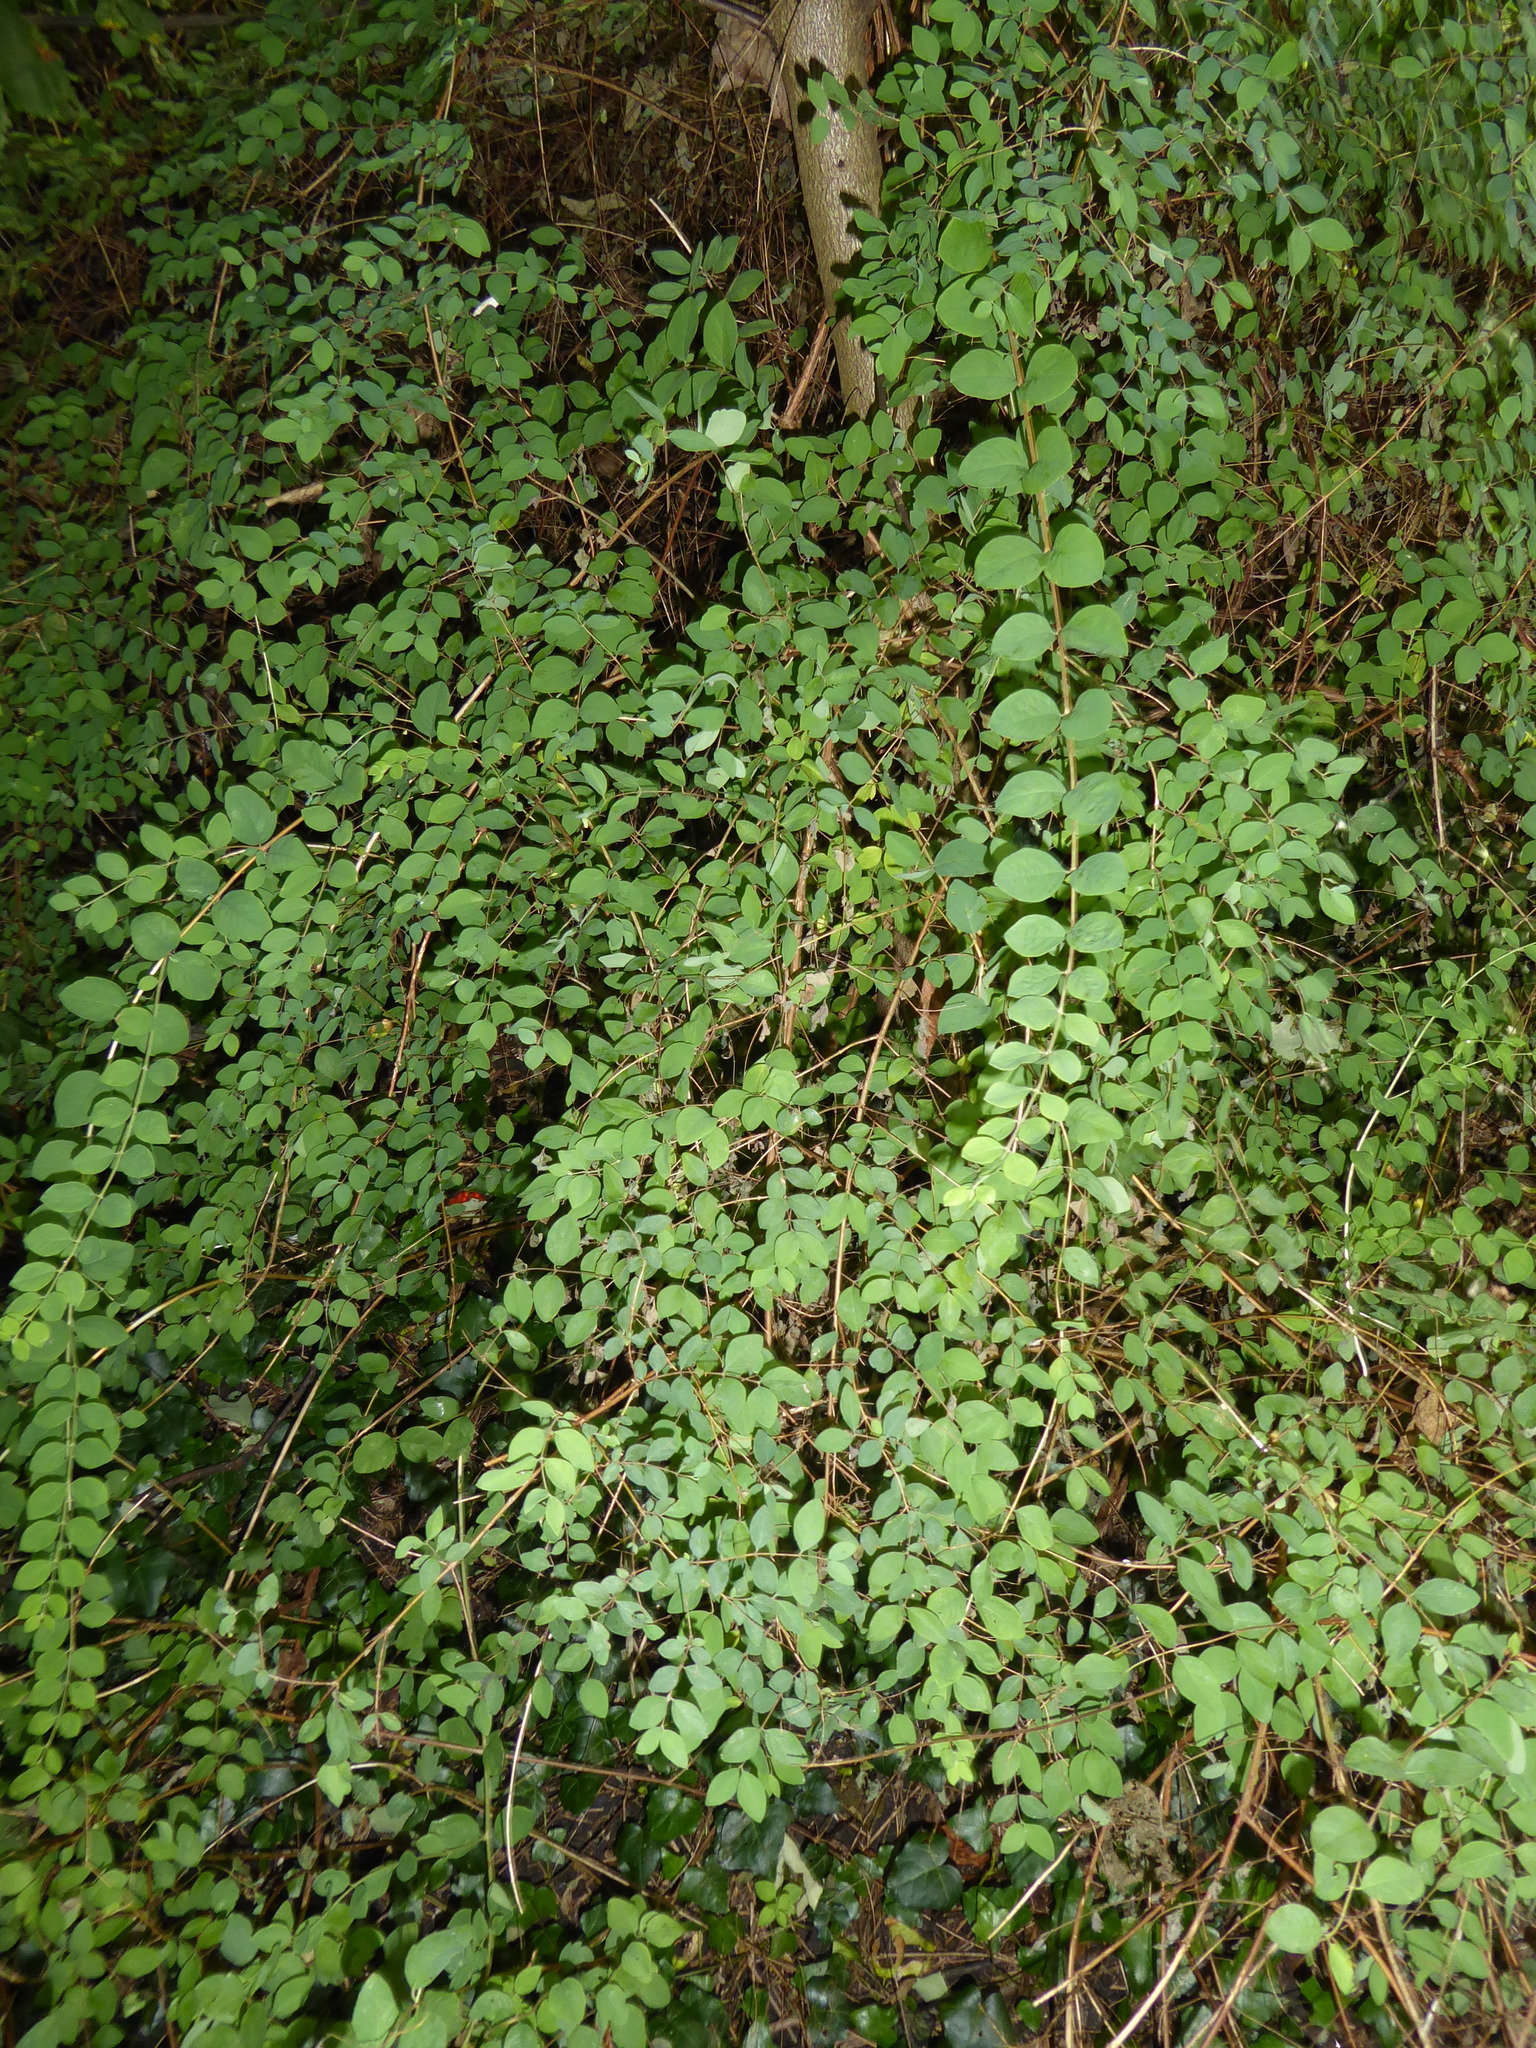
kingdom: Plantae
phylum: Tracheophyta
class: Magnoliopsida
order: Dipsacales
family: Caprifoliaceae
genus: Symphoricarpos
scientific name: Symphoricarpos chenaultii
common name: Hybrid coralberry
